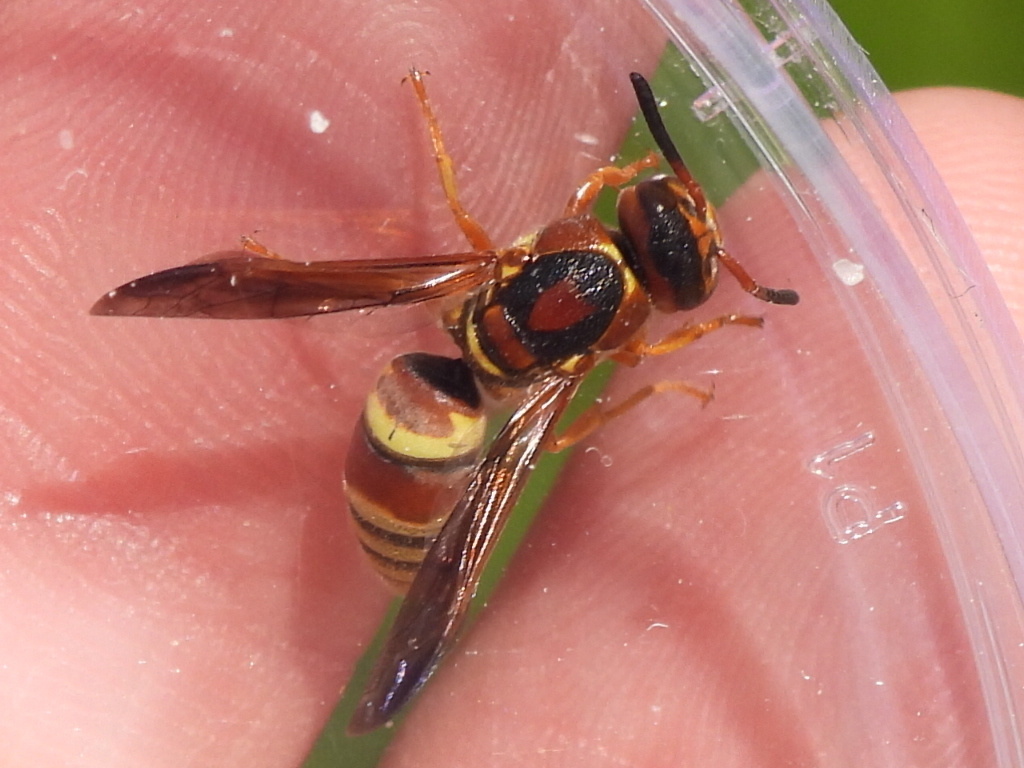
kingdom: Animalia
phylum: Arthropoda
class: Insecta
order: Hymenoptera
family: Eumenidae
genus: Euodynerus
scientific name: Euodynerus pratensis
